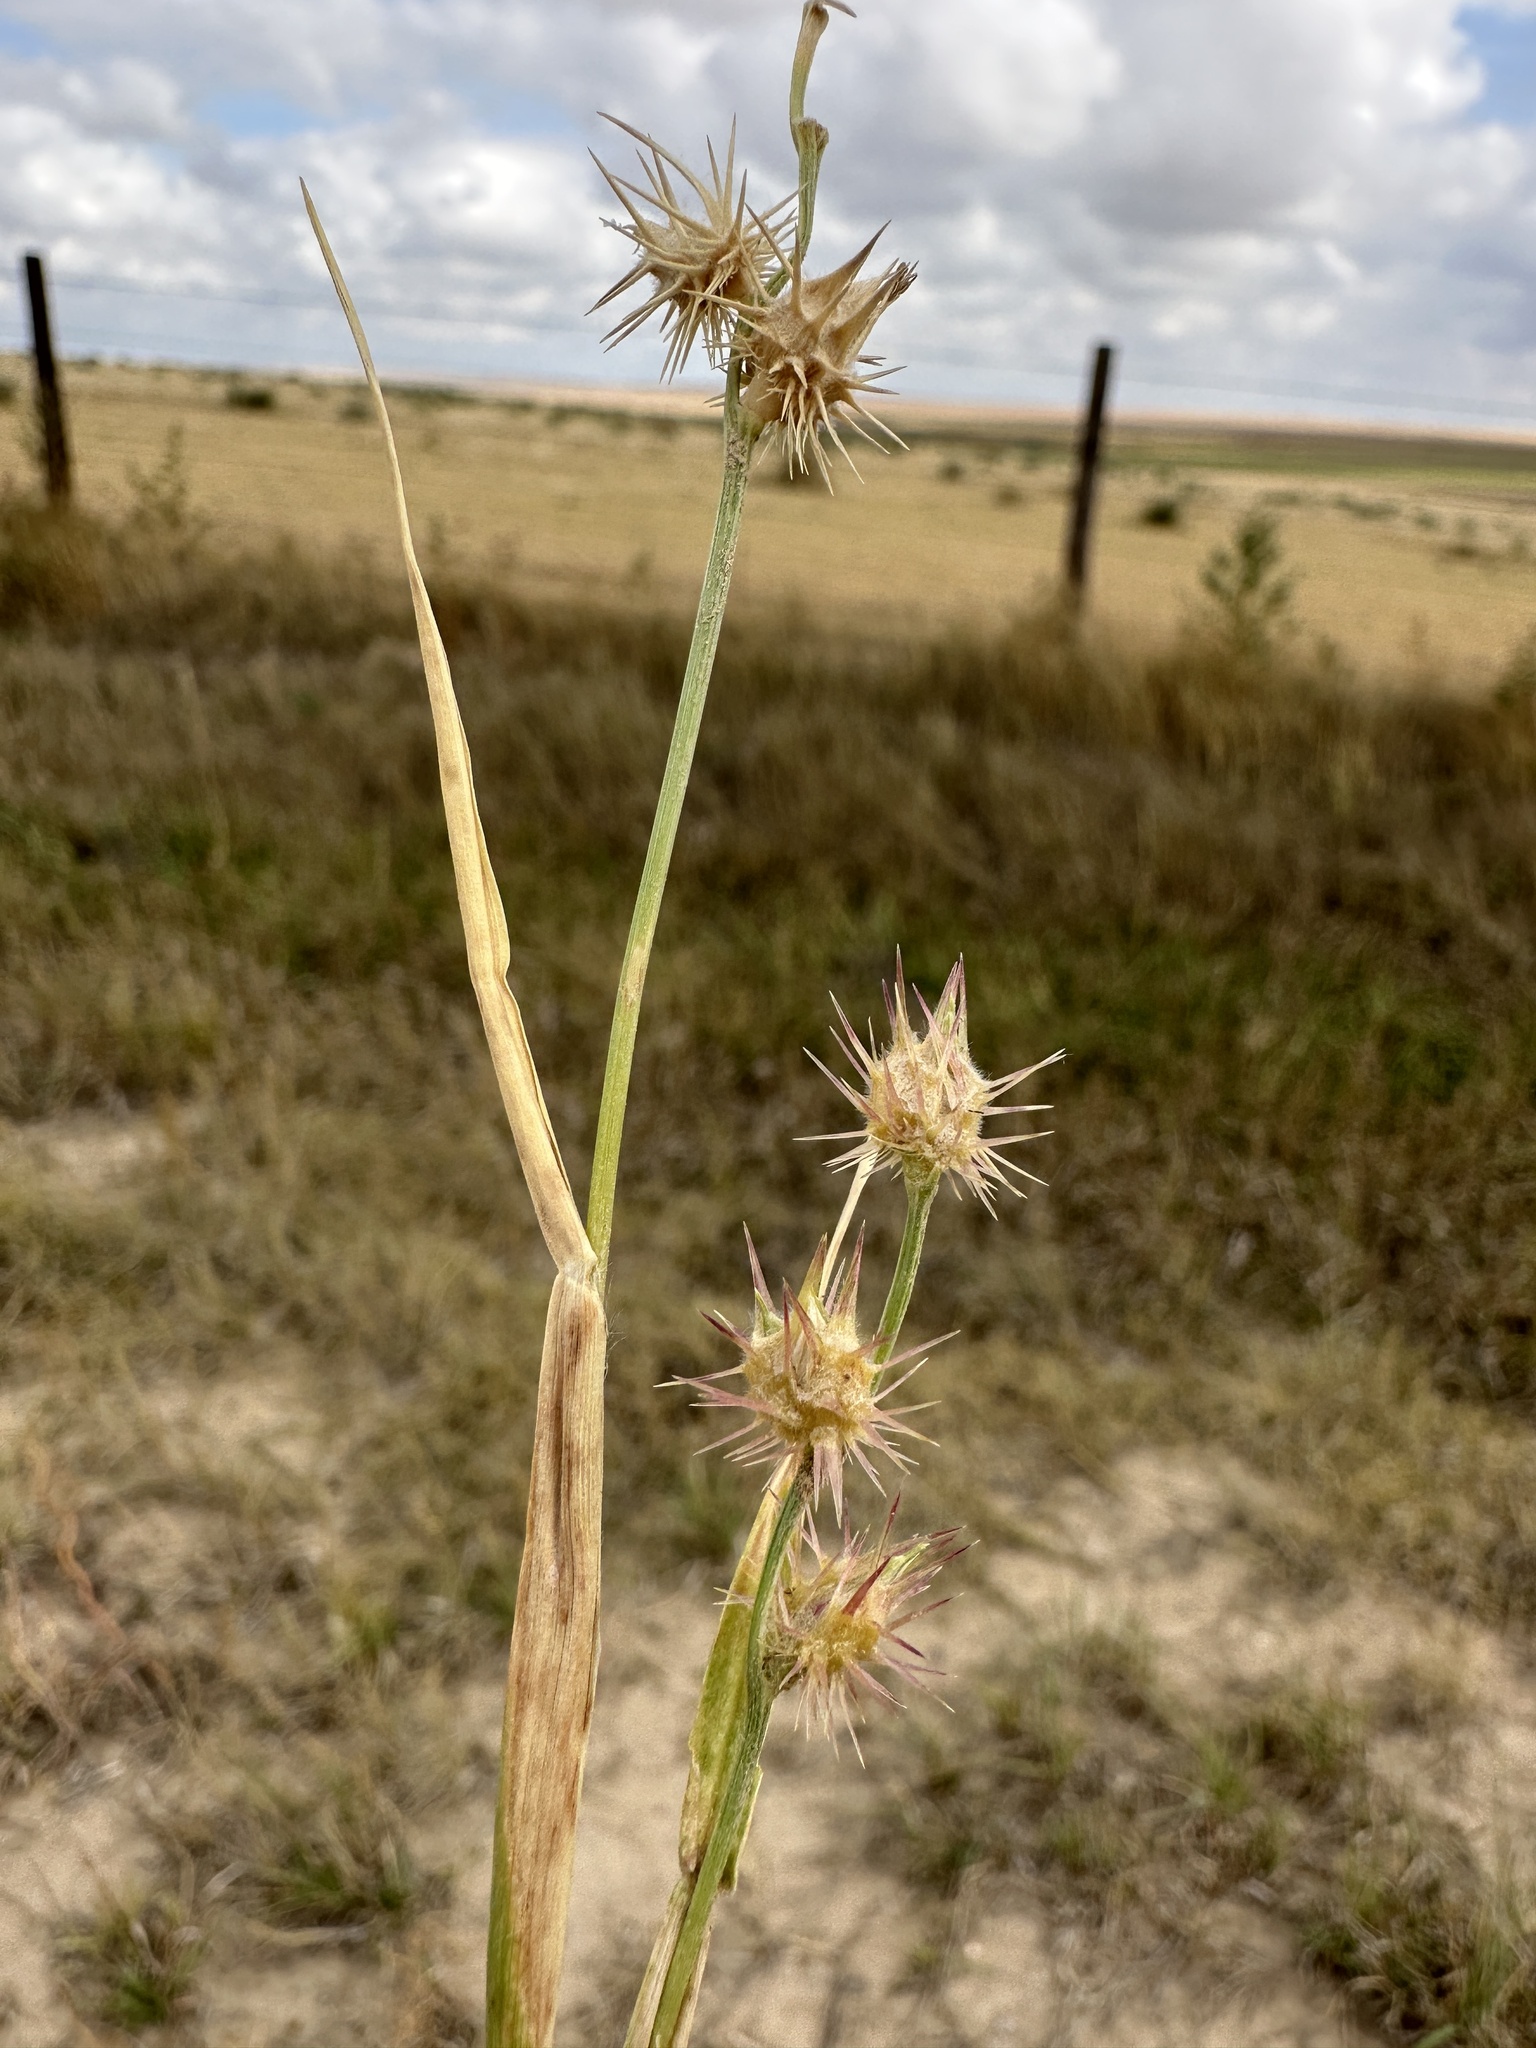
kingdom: Plantae
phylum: Tracheophyta
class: Liliopsida
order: Poales
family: Poaceae
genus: Cenchrus
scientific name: Cenchrus longispinus
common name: Mat sandbur
